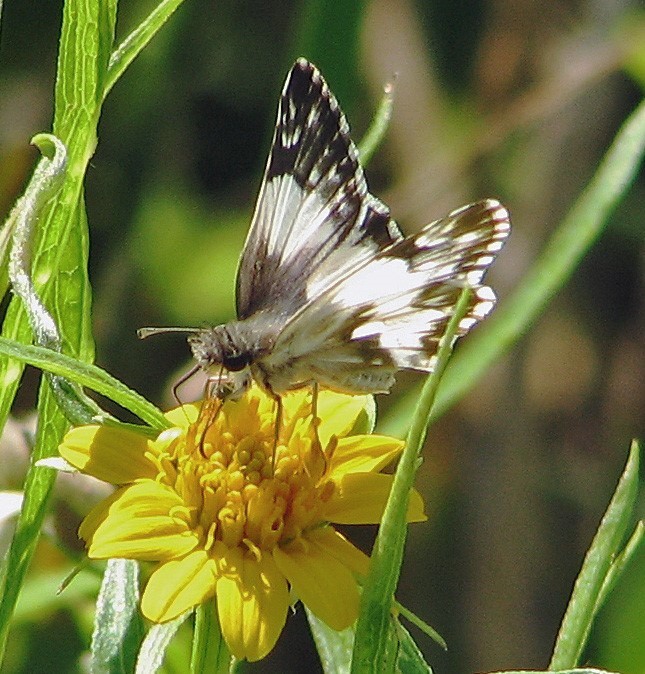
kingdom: Animalia
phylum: Arthropoda
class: Insecta
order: Lepidoptera
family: Hesperiidae
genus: Heliopetes
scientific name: Heliopetes omrina
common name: Stained white-skipper
